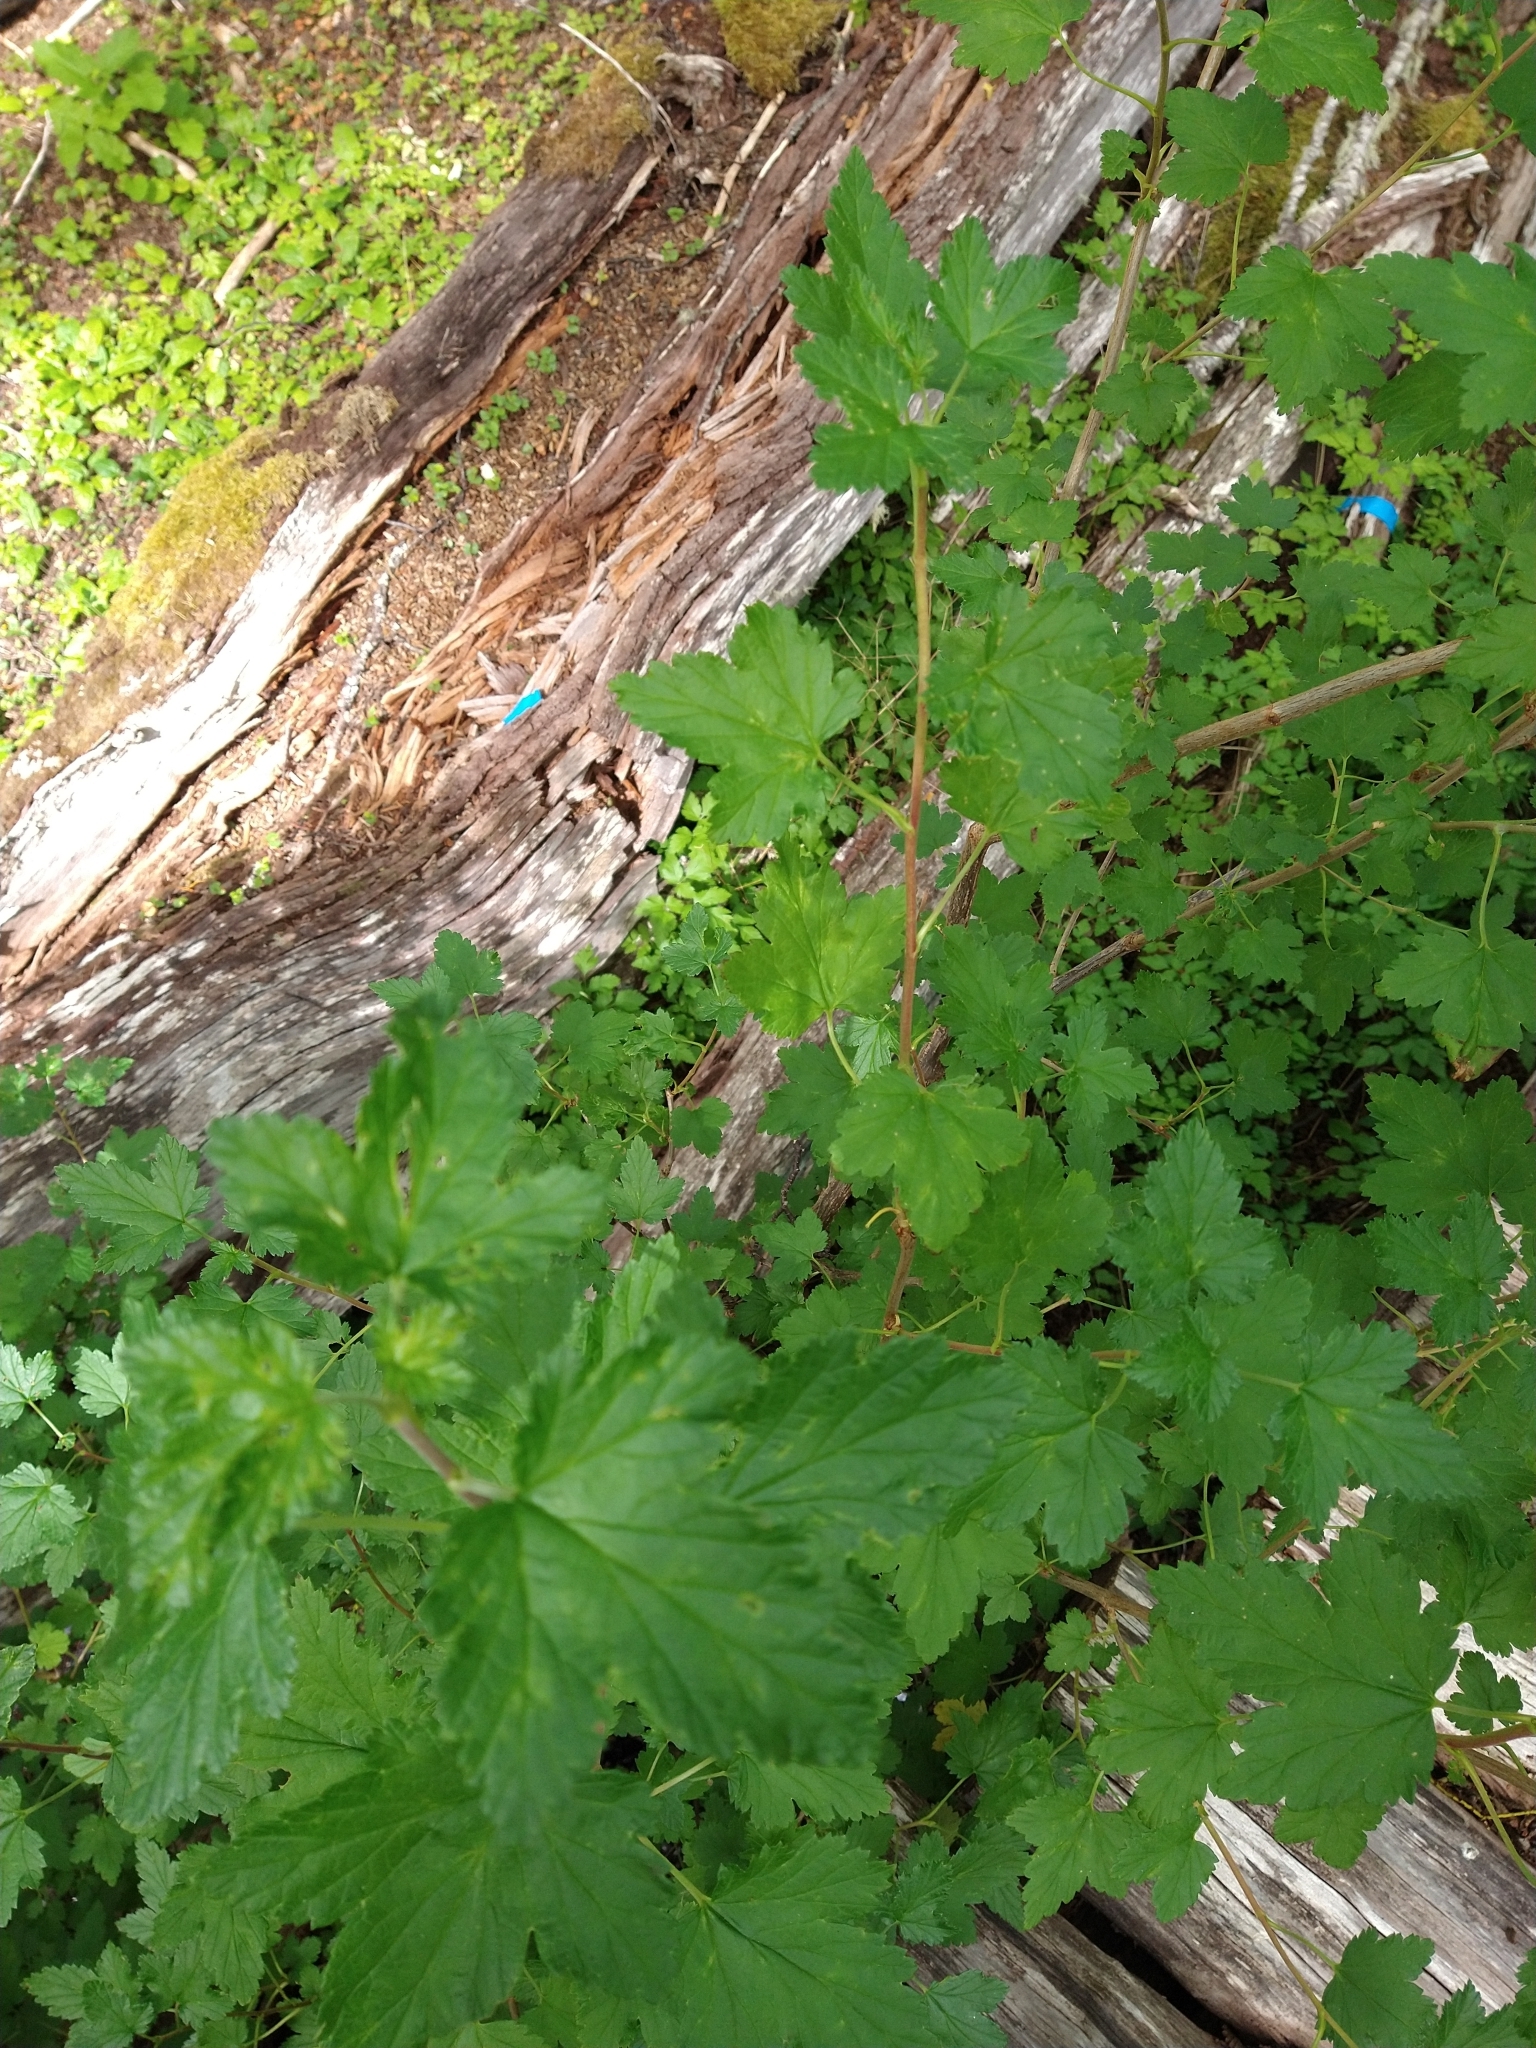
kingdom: Plantae
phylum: Tracheophyta
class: Magnoliopsida
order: Saxifragales
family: Grossulariaceae
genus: Ribes
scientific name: Ribes magellanicum
